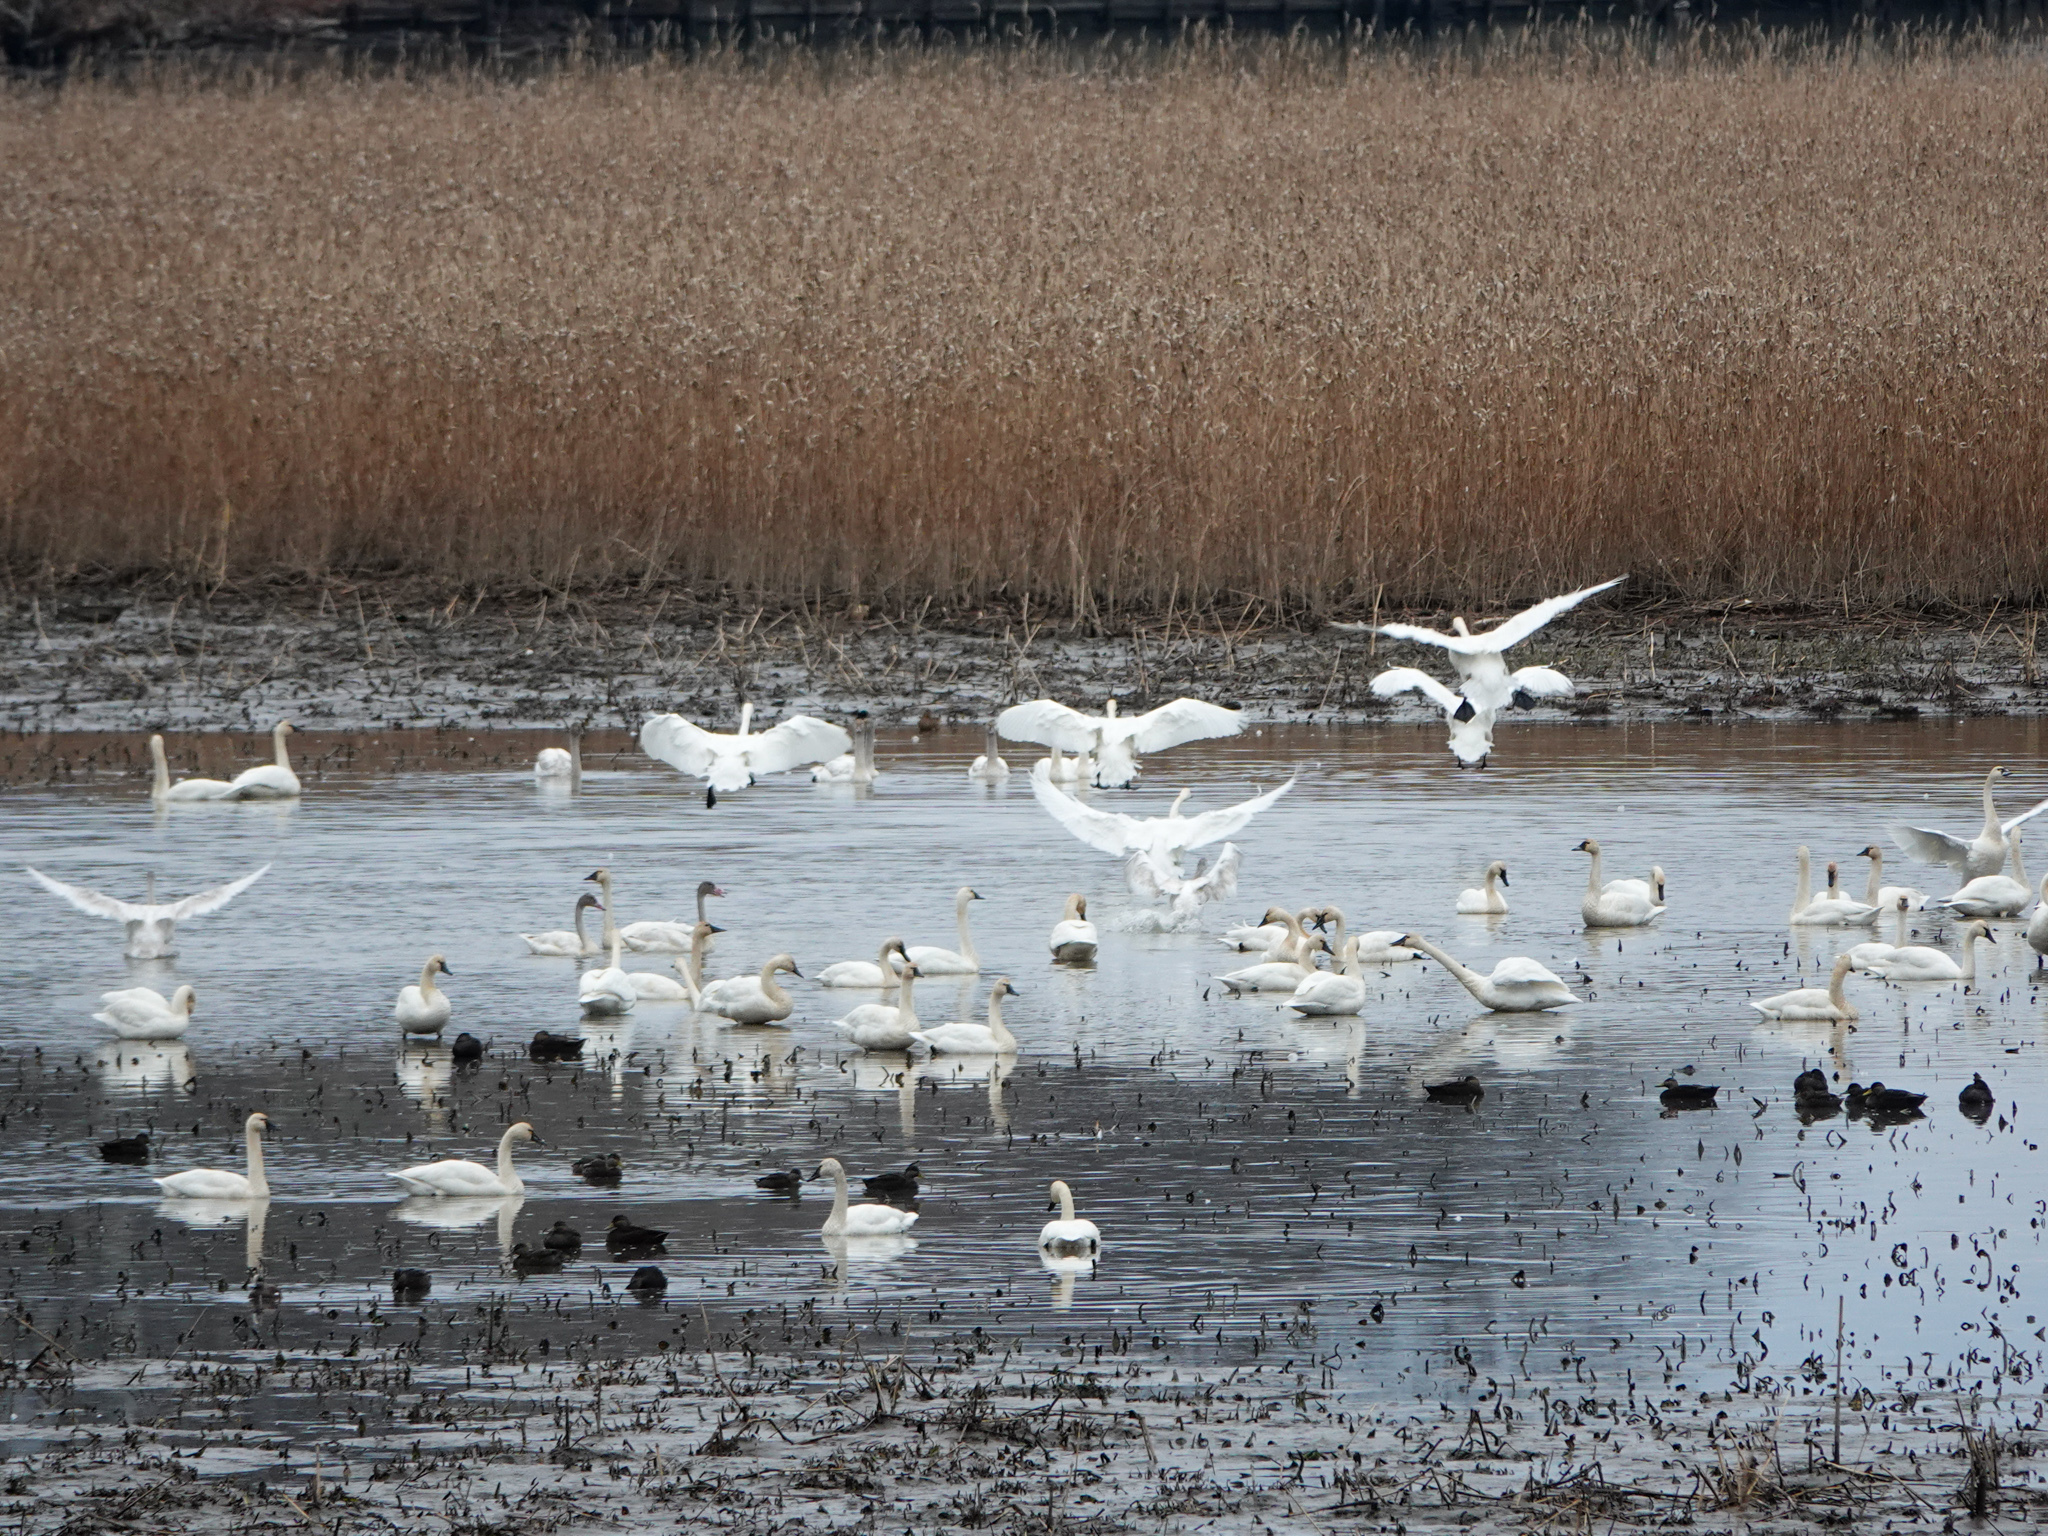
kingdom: Animalia
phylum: Chordata
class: Aves
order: Anseriformes
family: Anatidae
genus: Cygnus
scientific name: Cygnus columbianus
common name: Tundra swan
